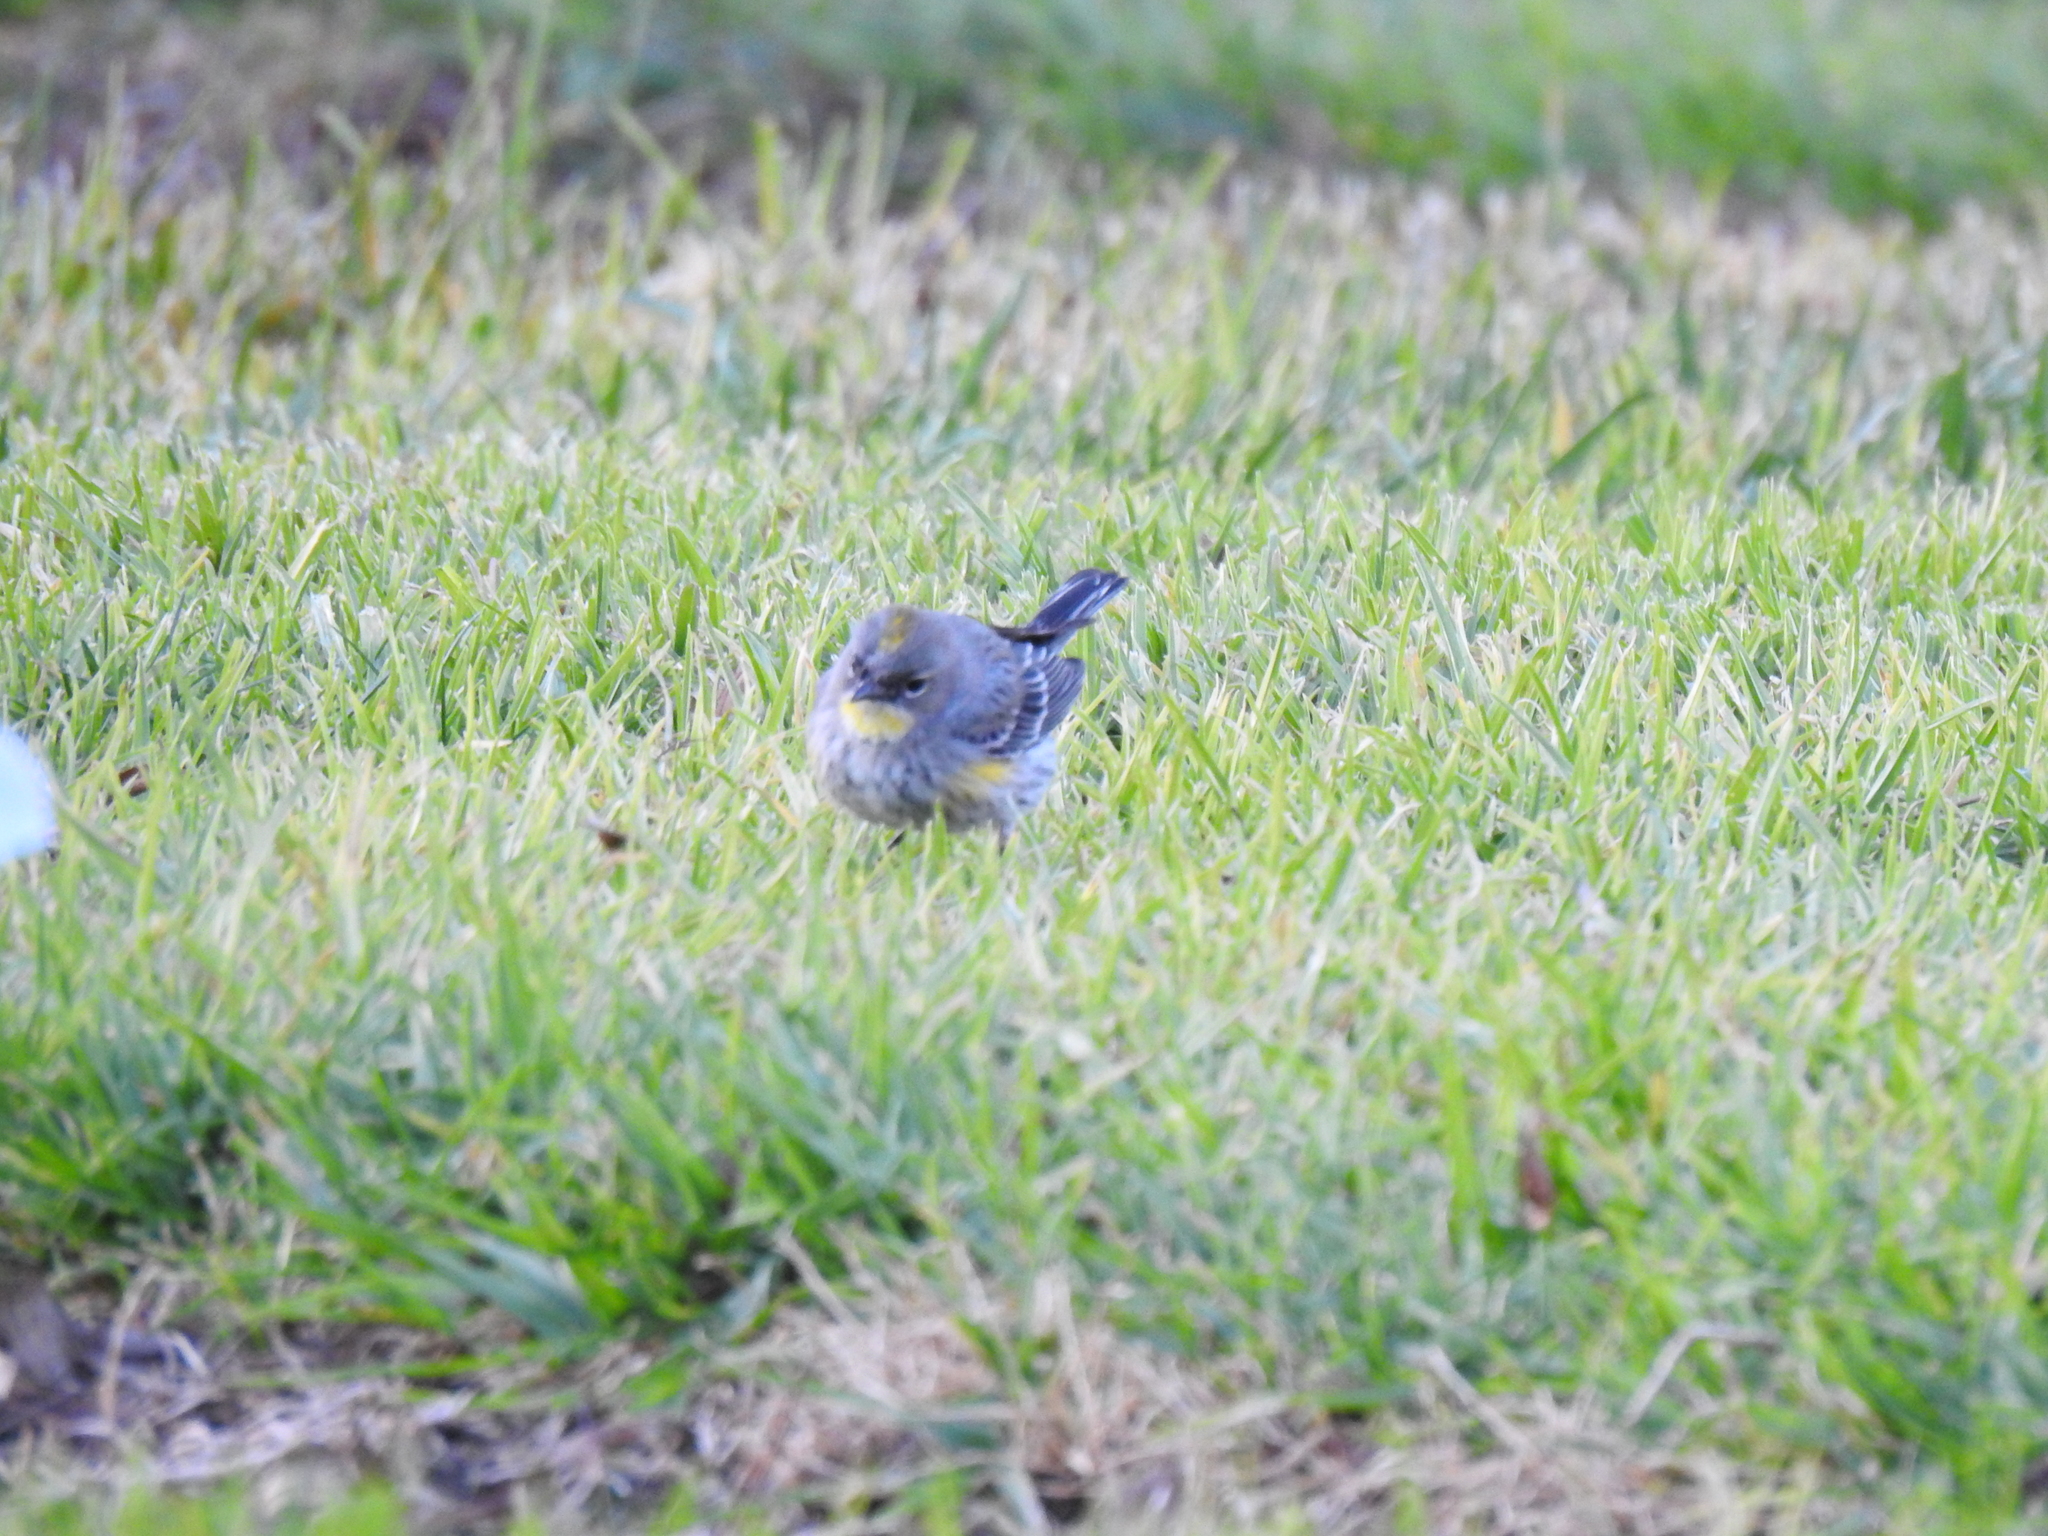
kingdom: Animalia
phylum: Chordata
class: Aves
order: Passeriformes
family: Parulidae
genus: Setophaga
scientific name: Setophaga coronata
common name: Myrtle warbler
